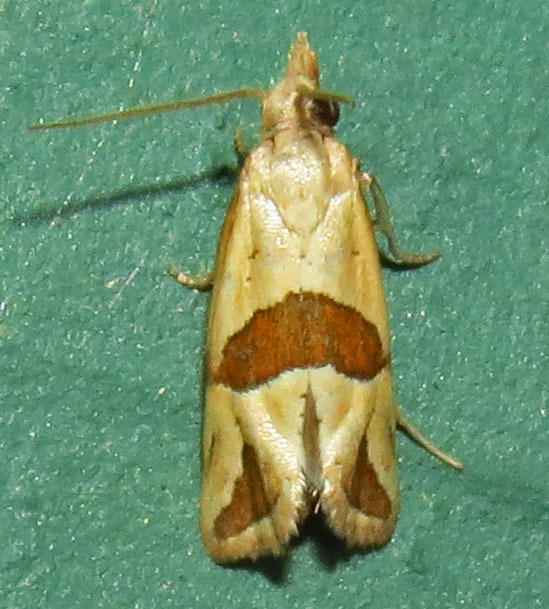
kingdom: Animalia
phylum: Arthropoda
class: Insecta
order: Lepidoptera
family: Tortricidae
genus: Eugnosta
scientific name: Eugnosta sartana
